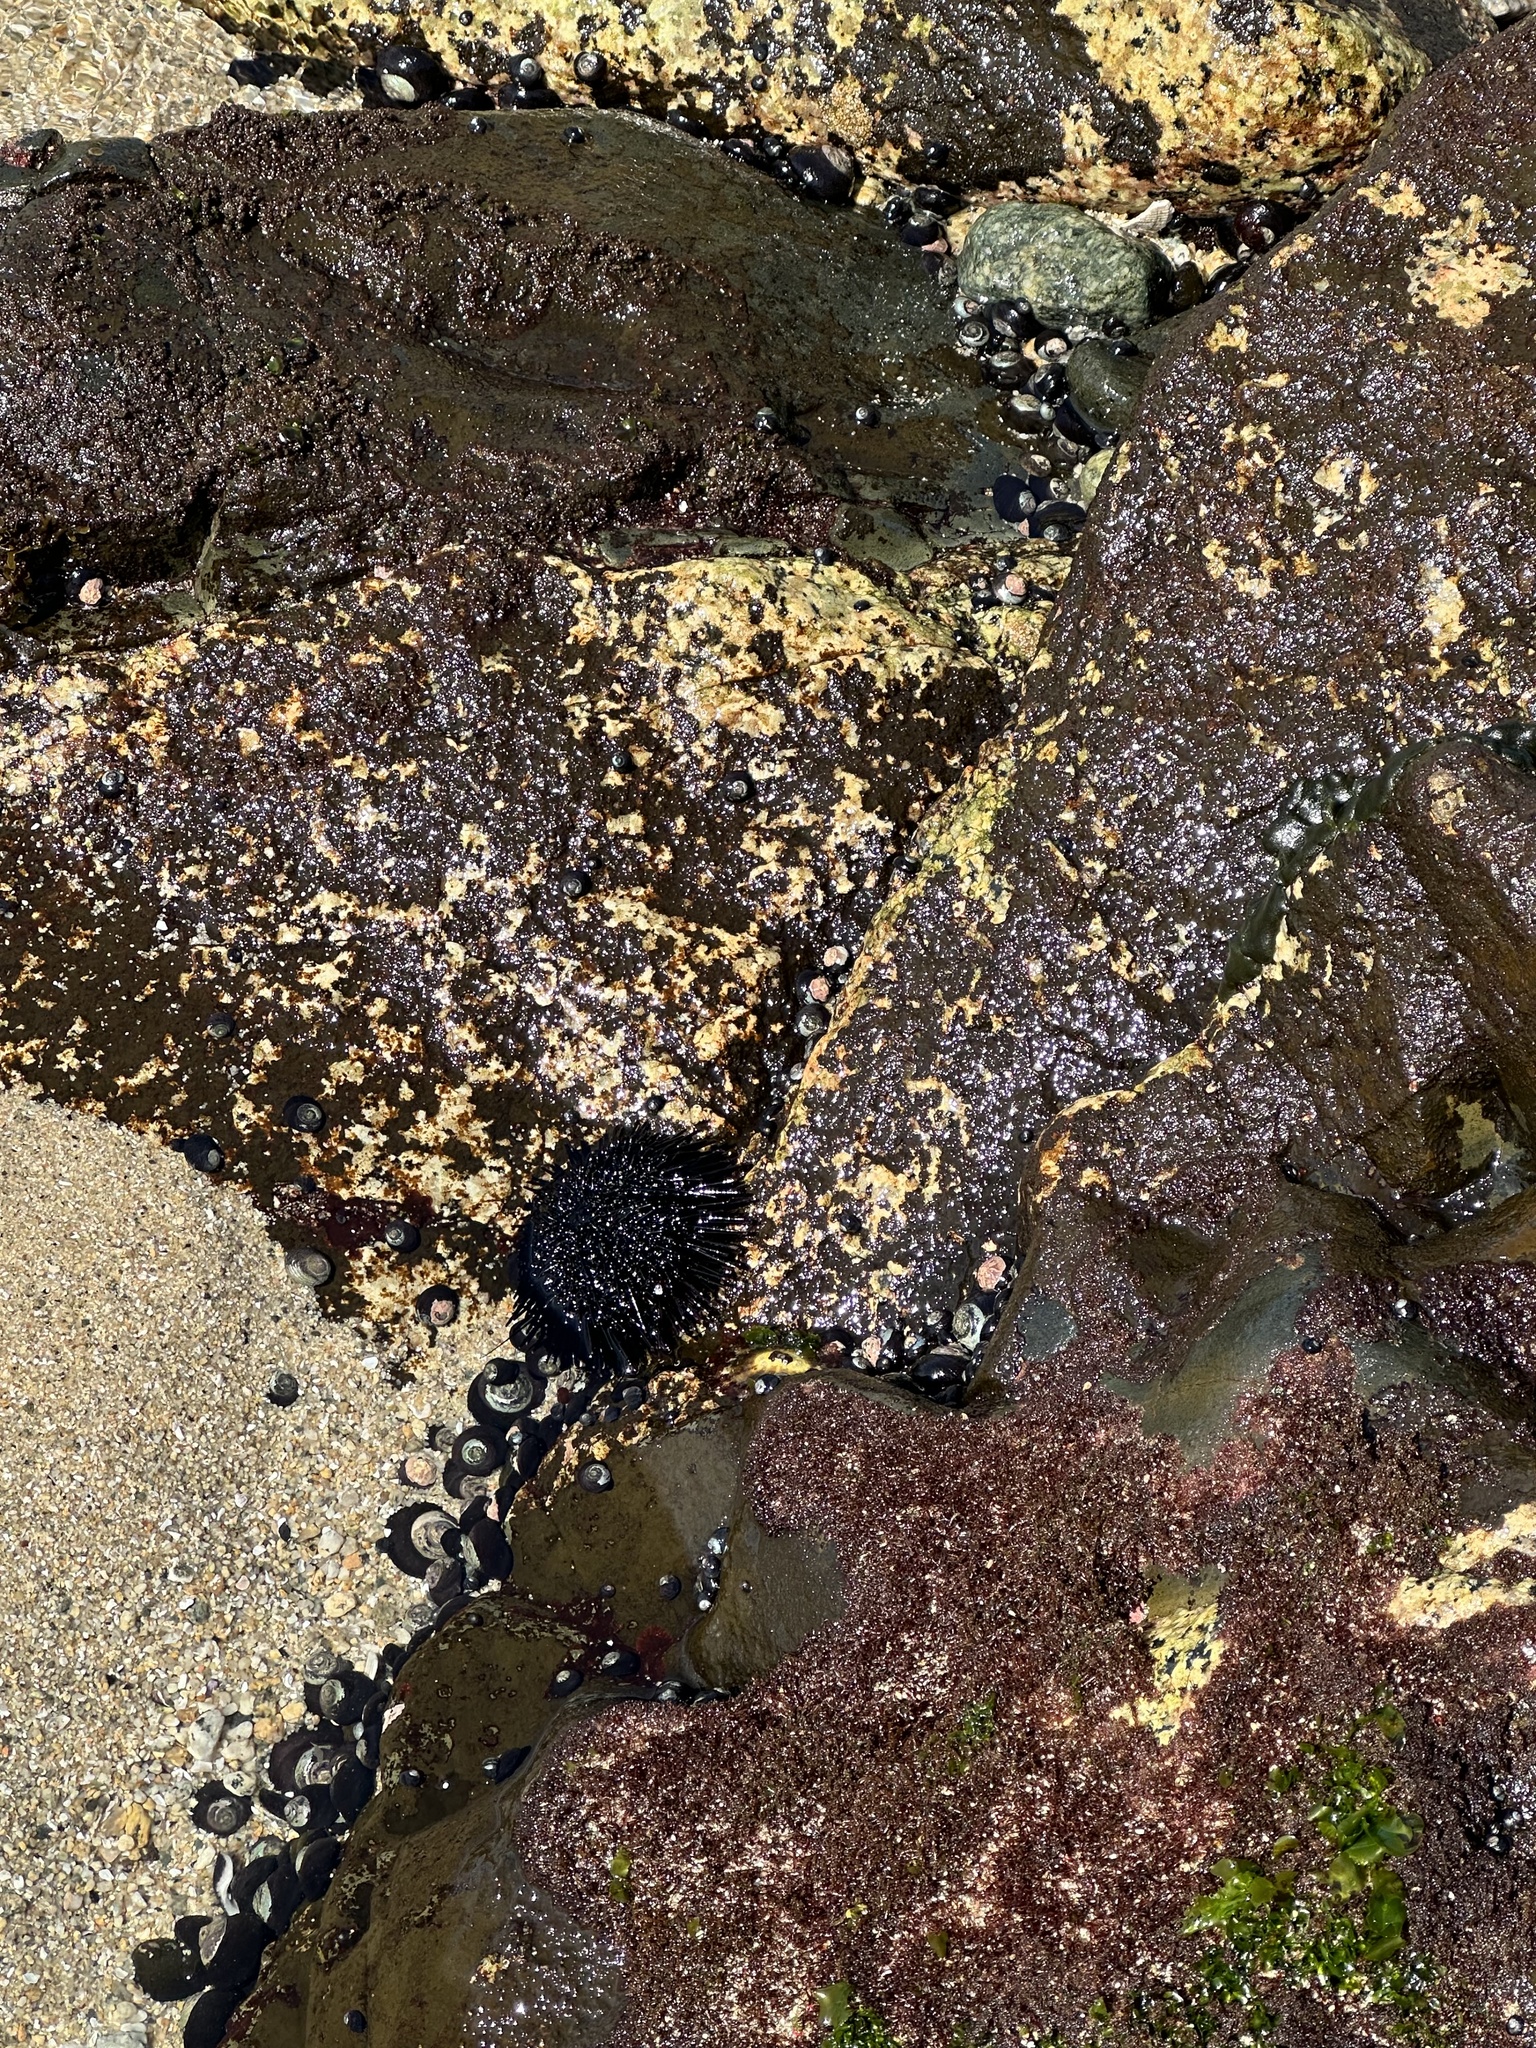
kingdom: Animalia
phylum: Echinodermata
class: Echinoidea
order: Arbacioida
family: Arbaciidae
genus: Tetrapygus
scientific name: Tetrapygus niger
